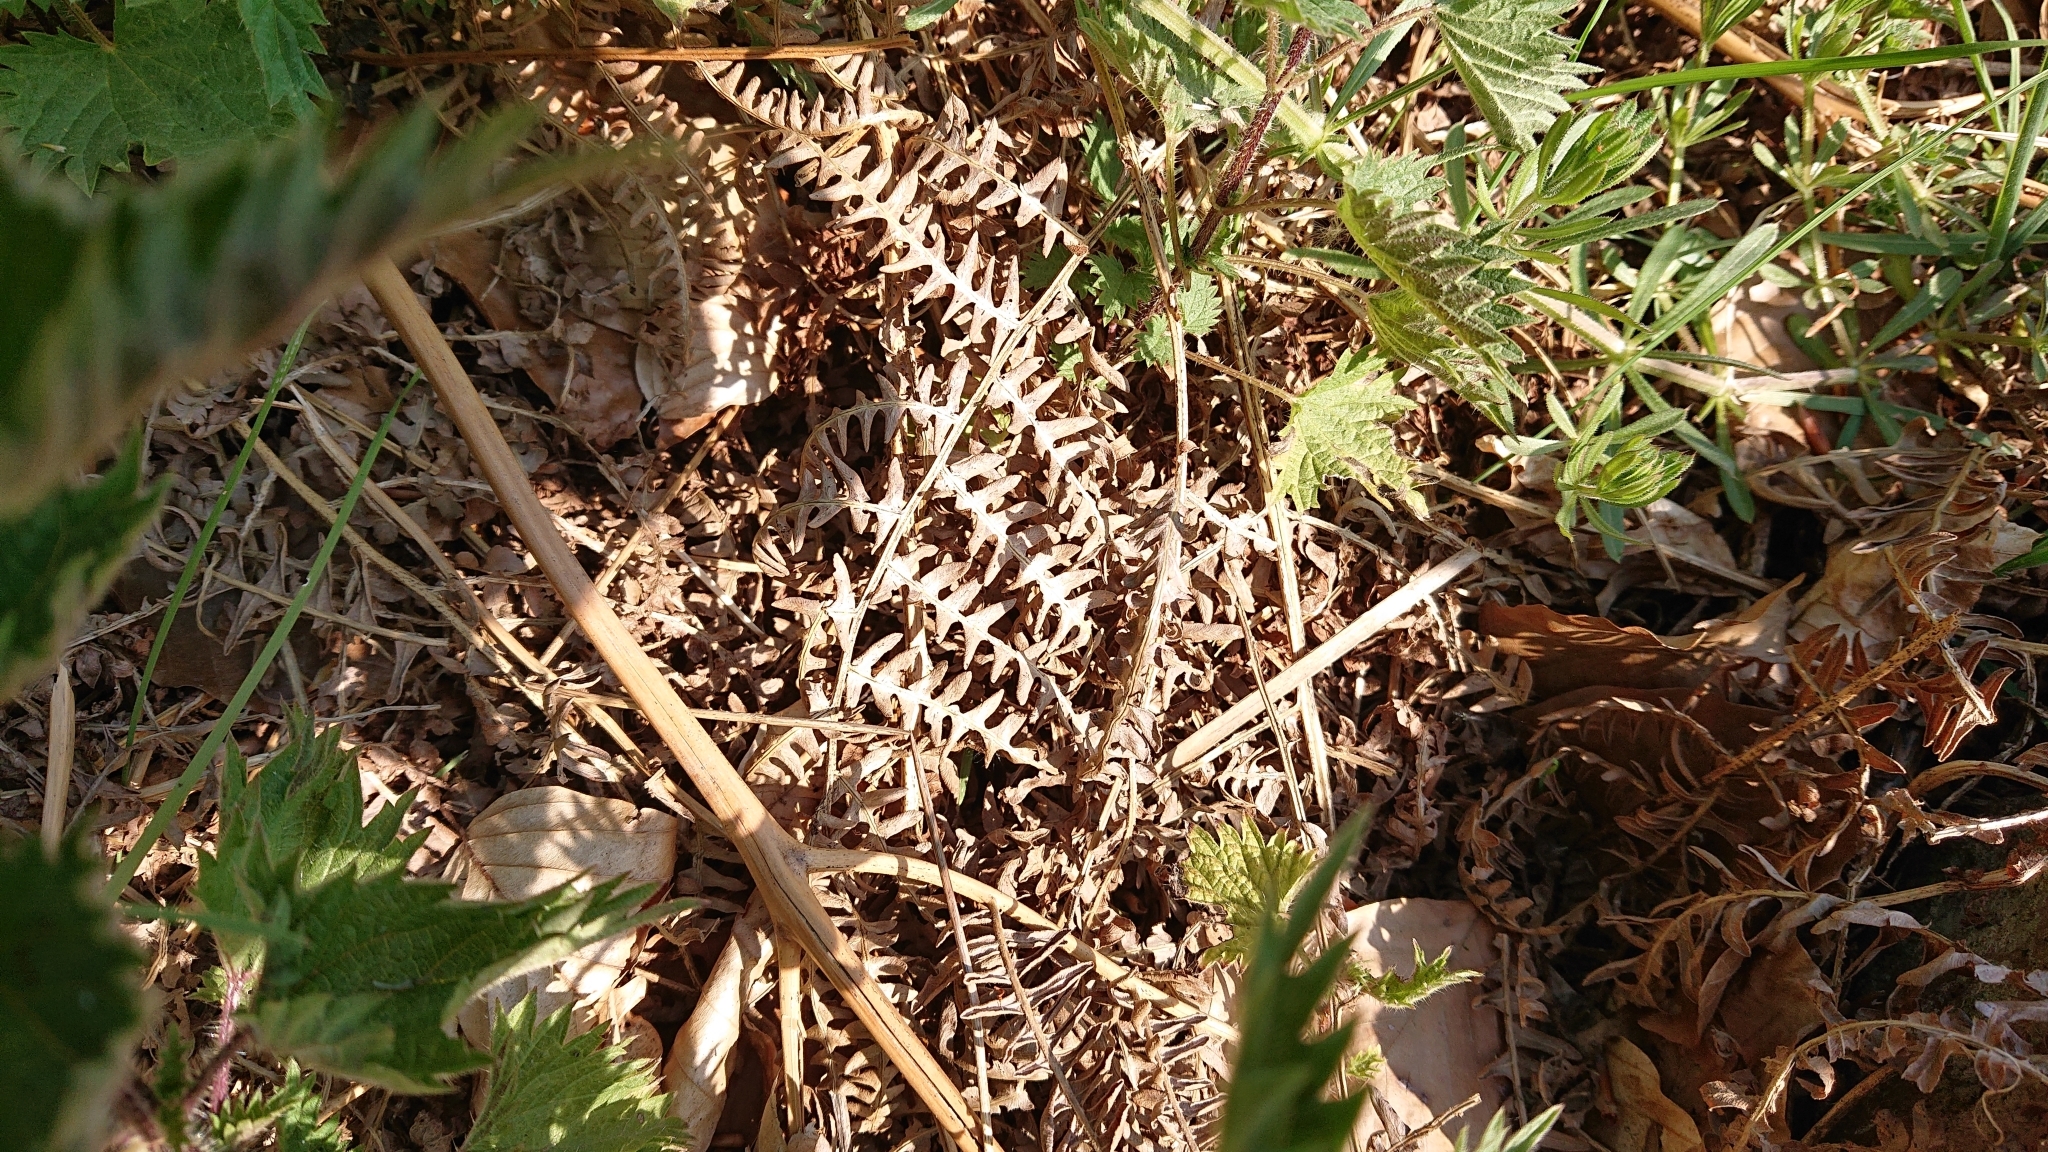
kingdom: Plantae
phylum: Tracheophyta
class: Polypodiopsida
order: Polypodiales
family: Dennstaedtiaceae
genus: Pteridium
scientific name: Pteridium aquilinum
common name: Bracken
